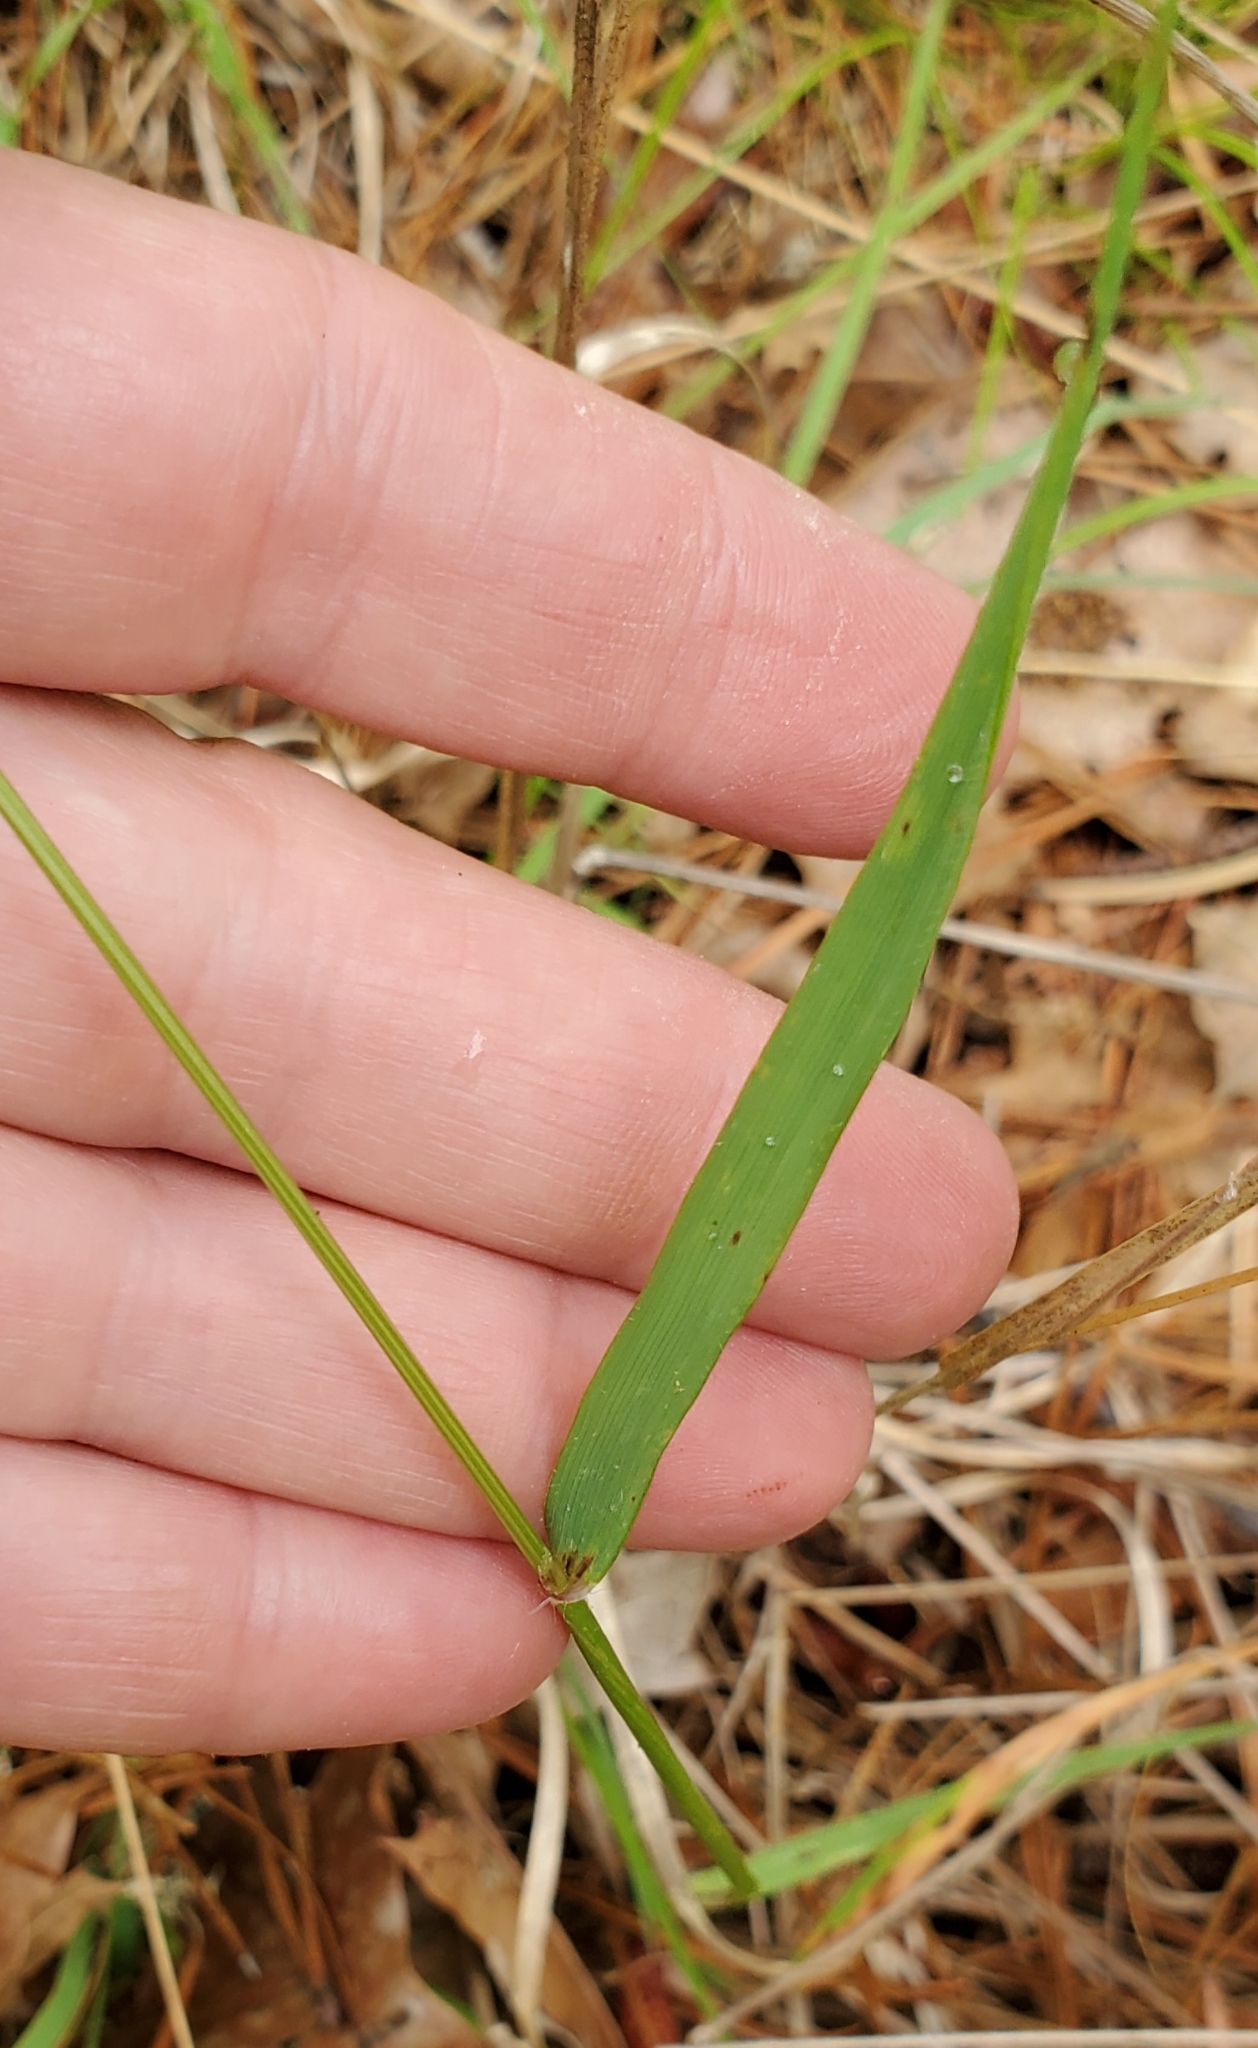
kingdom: Plantae
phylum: Tracheophyta
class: Liliopsida
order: Poales
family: Poaceae
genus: Anthoxanthum
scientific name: Anthoxanthum odoratum
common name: Sweet vernalgrass
